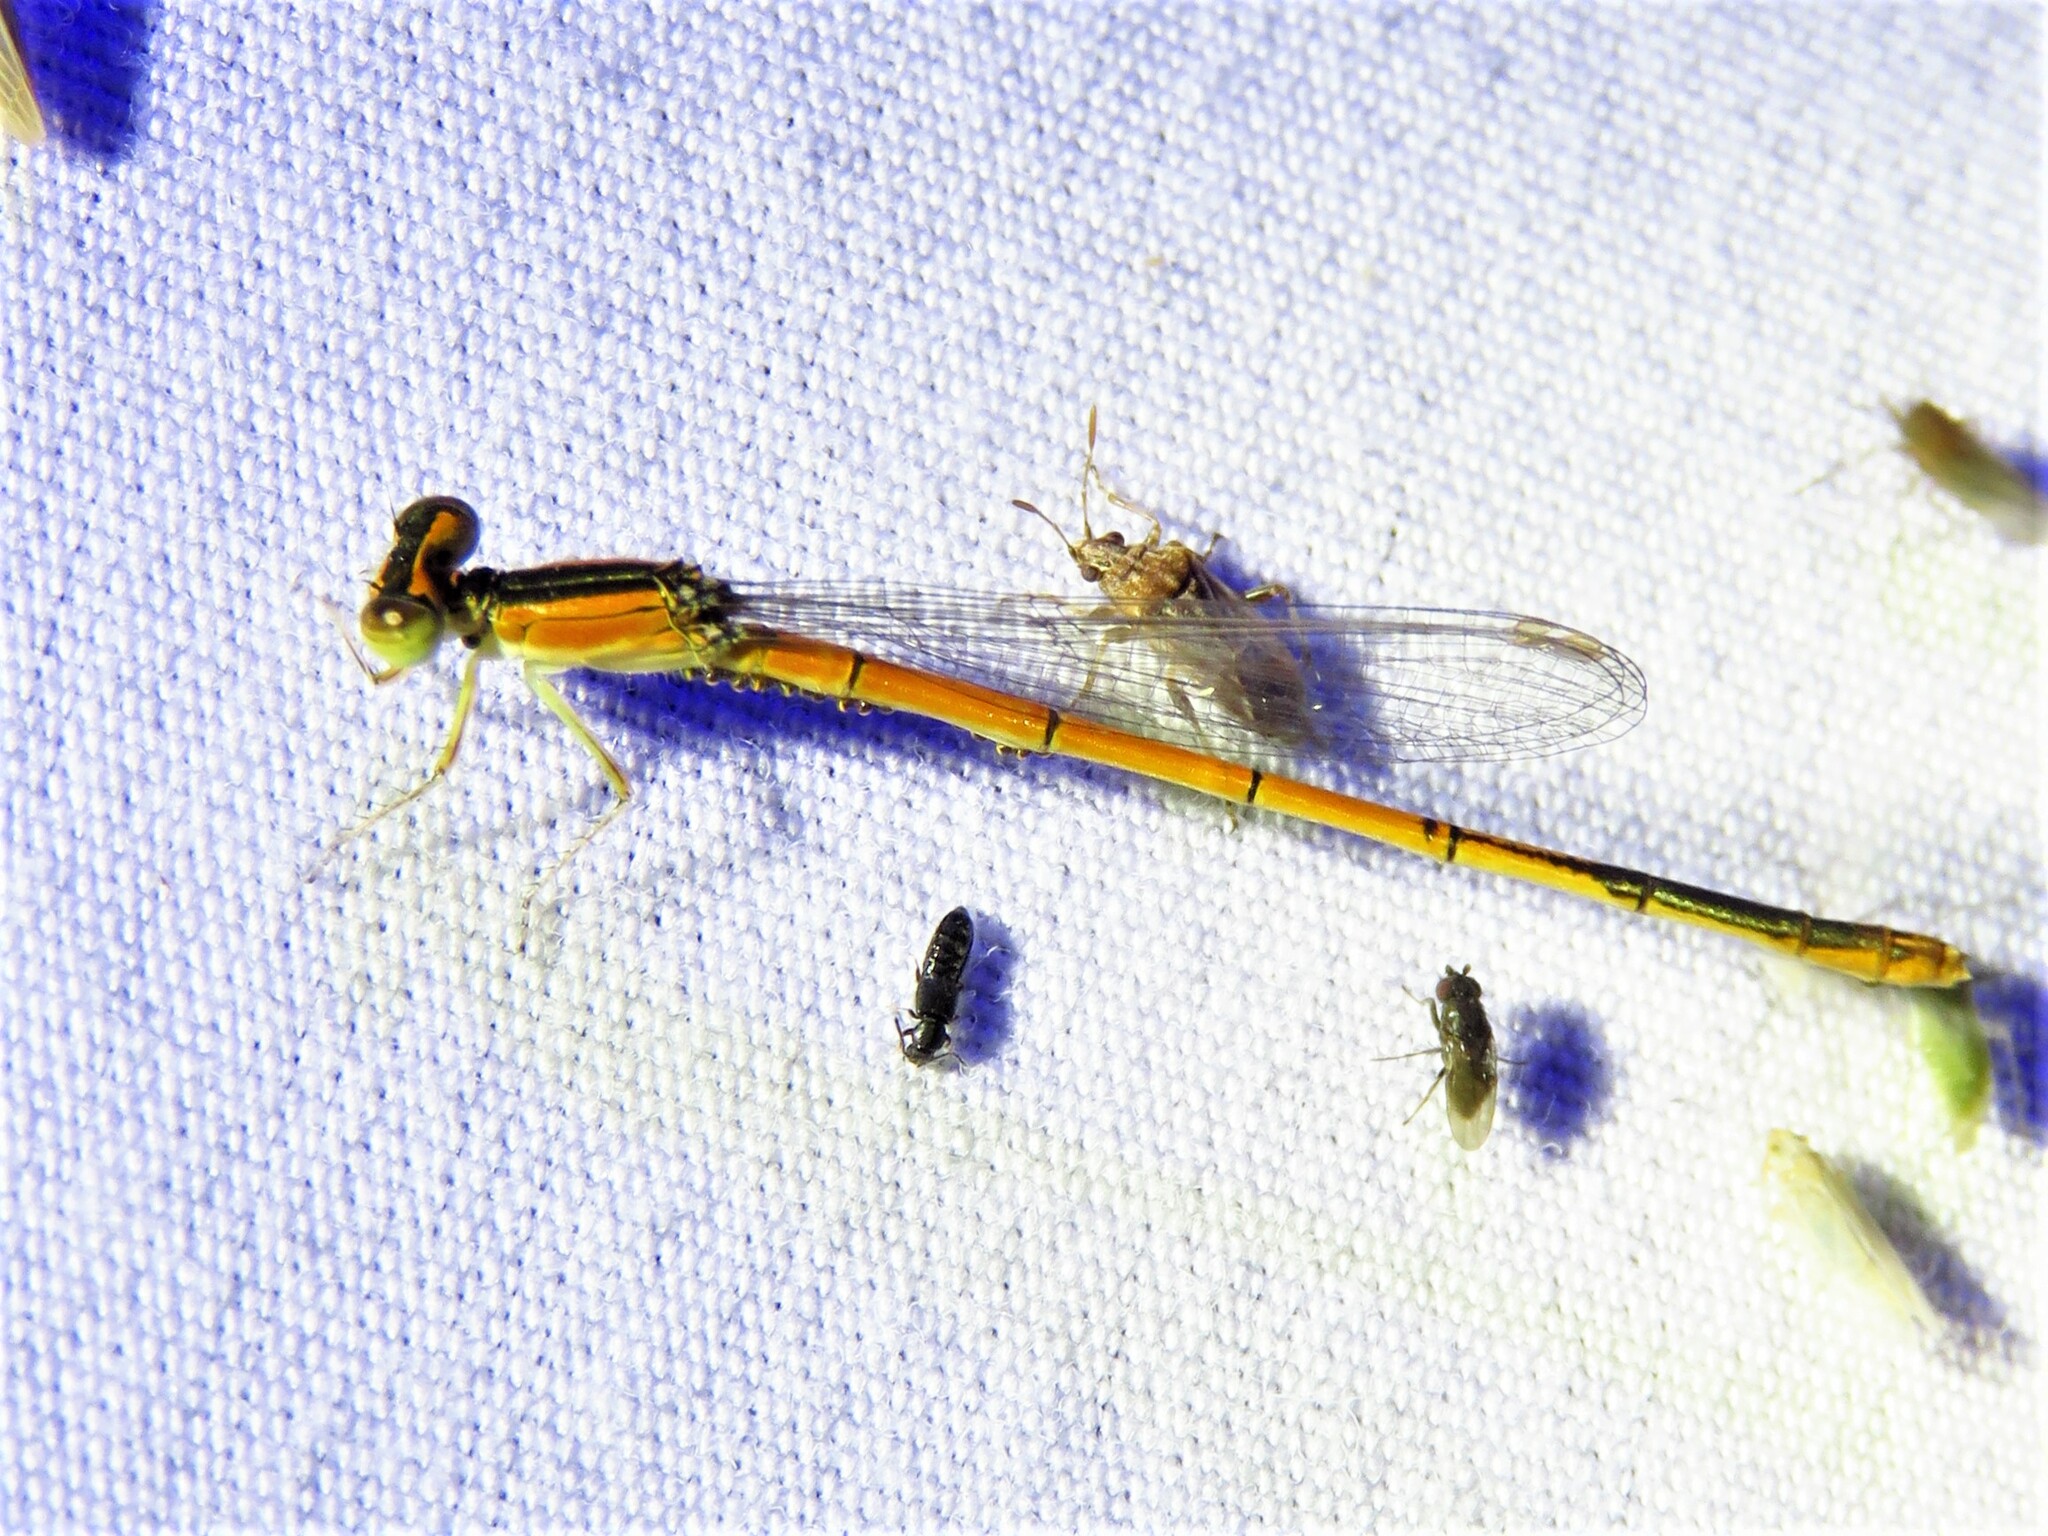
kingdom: Animalia
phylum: Arthropoda
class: Insecta
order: Odonata
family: Coenagrionidae
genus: Ischnura
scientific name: Ischnura hastata
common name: Citrine forktail
